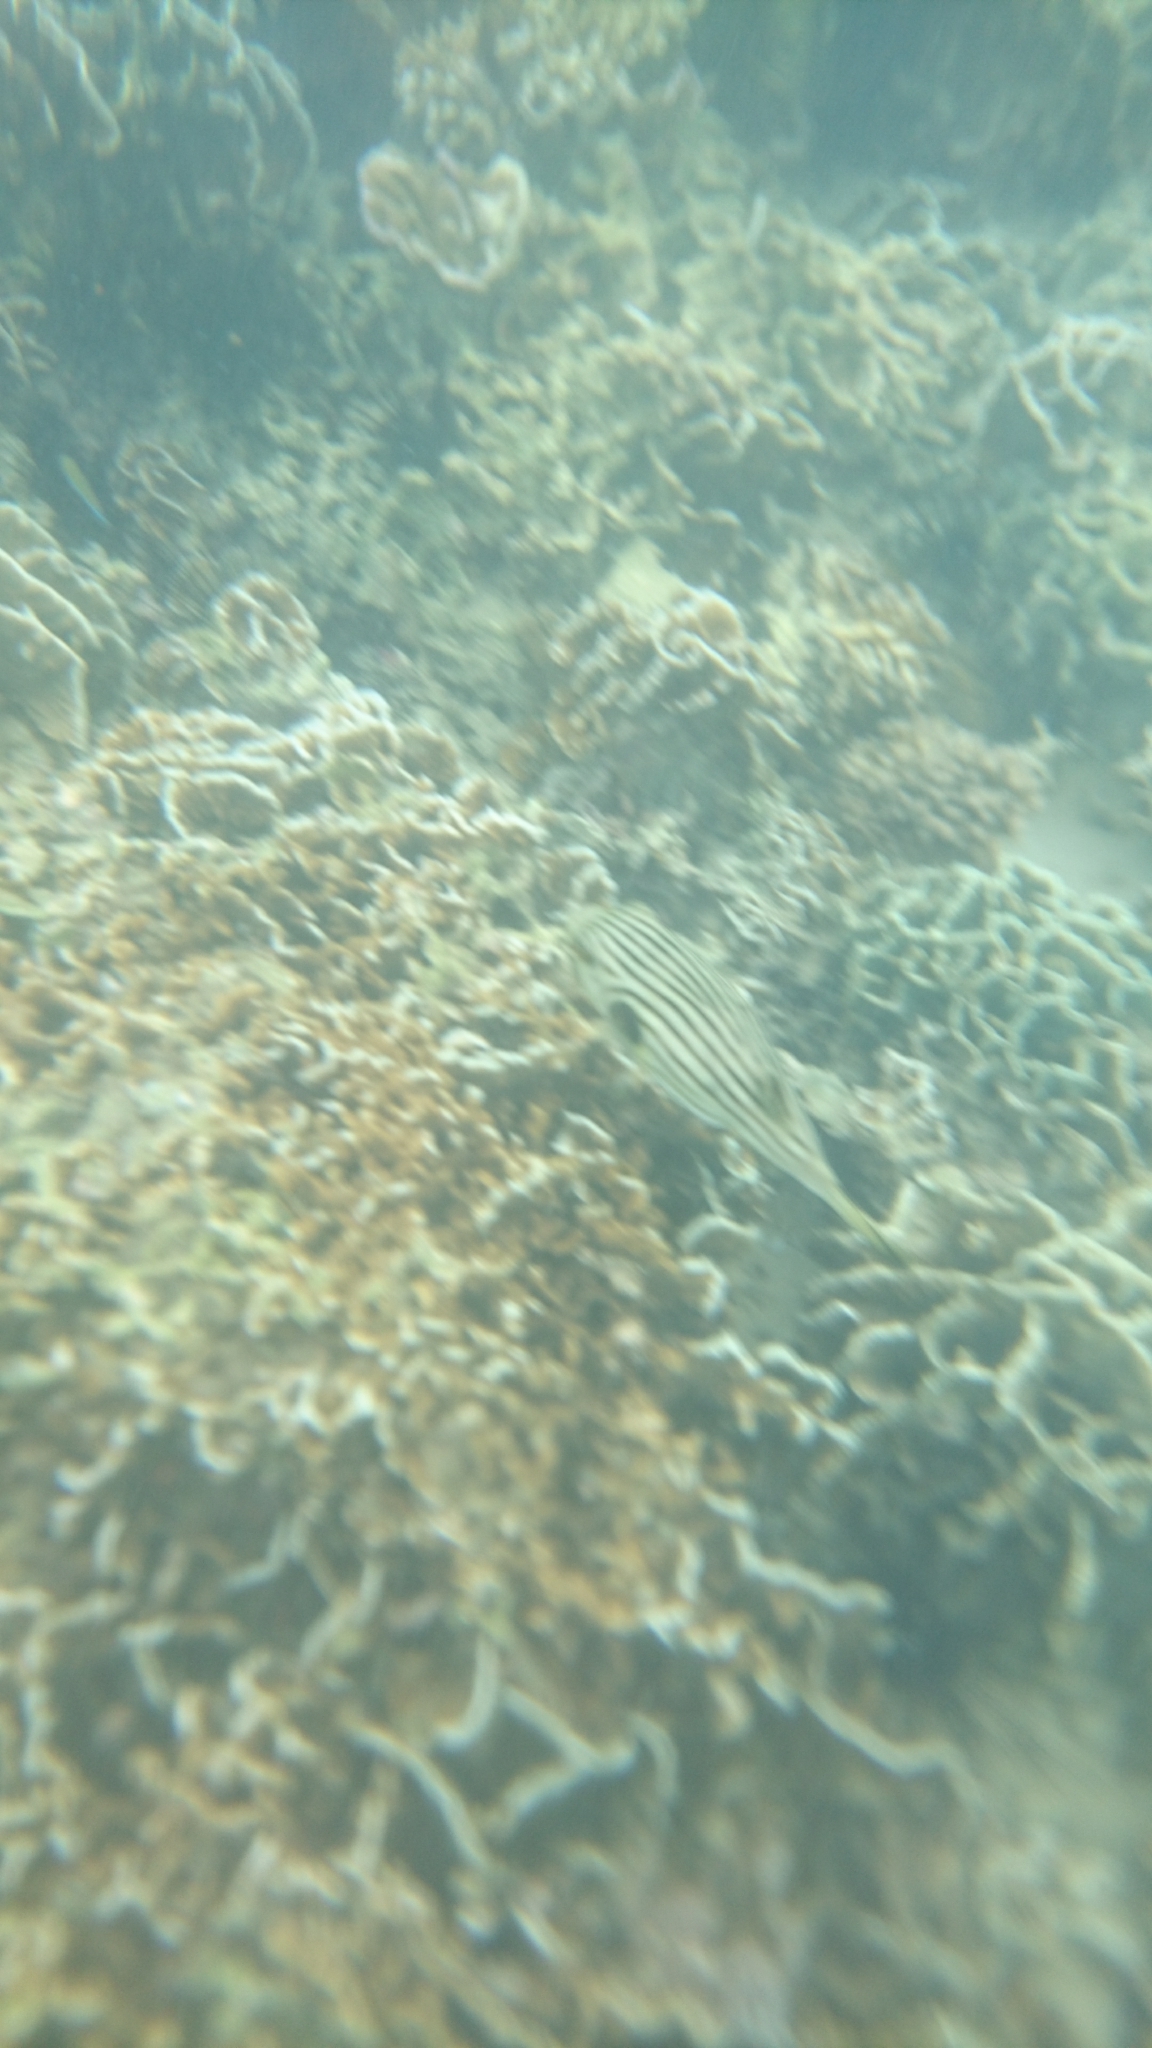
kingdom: Animalia
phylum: Chordata
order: Tetraodontiformes
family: Tetraodontidae
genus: Arothron
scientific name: Arothron manilensis
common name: Narrow-lined puffer
